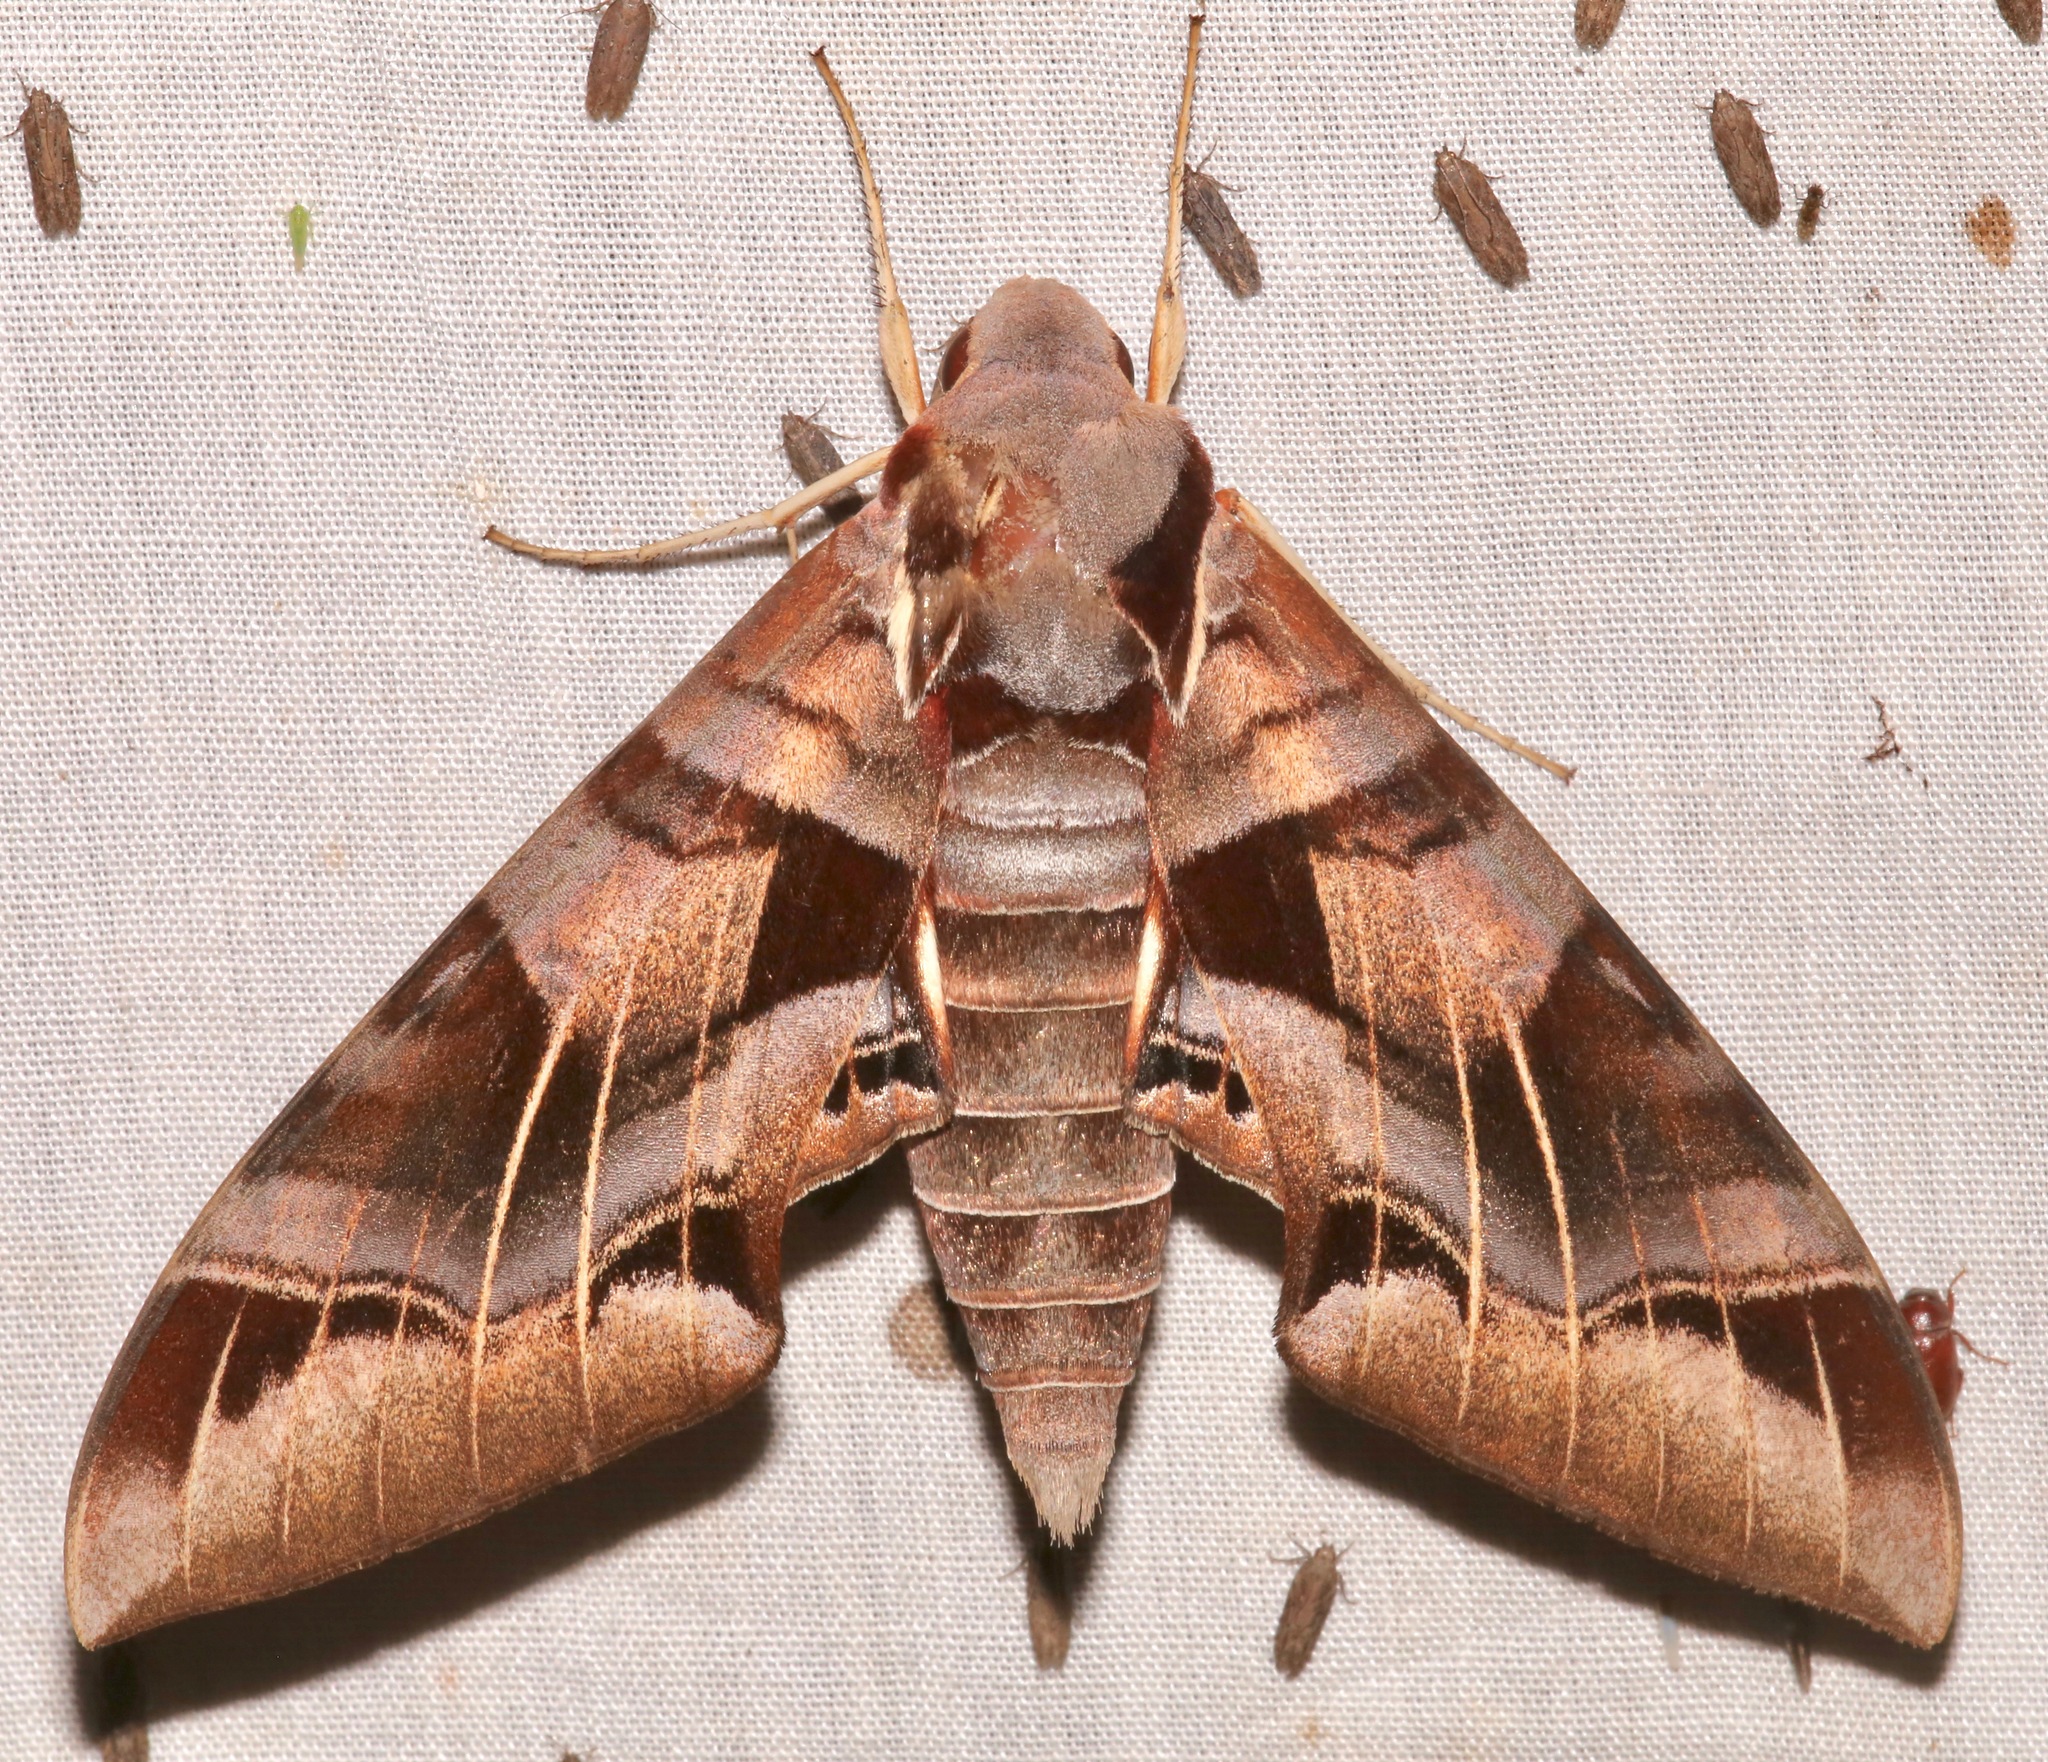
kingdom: Animalia
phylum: Arthropoda
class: Insecta
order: Lepidoptera
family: Sphingidae
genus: Eumorpha
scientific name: Eumorpha typhon
